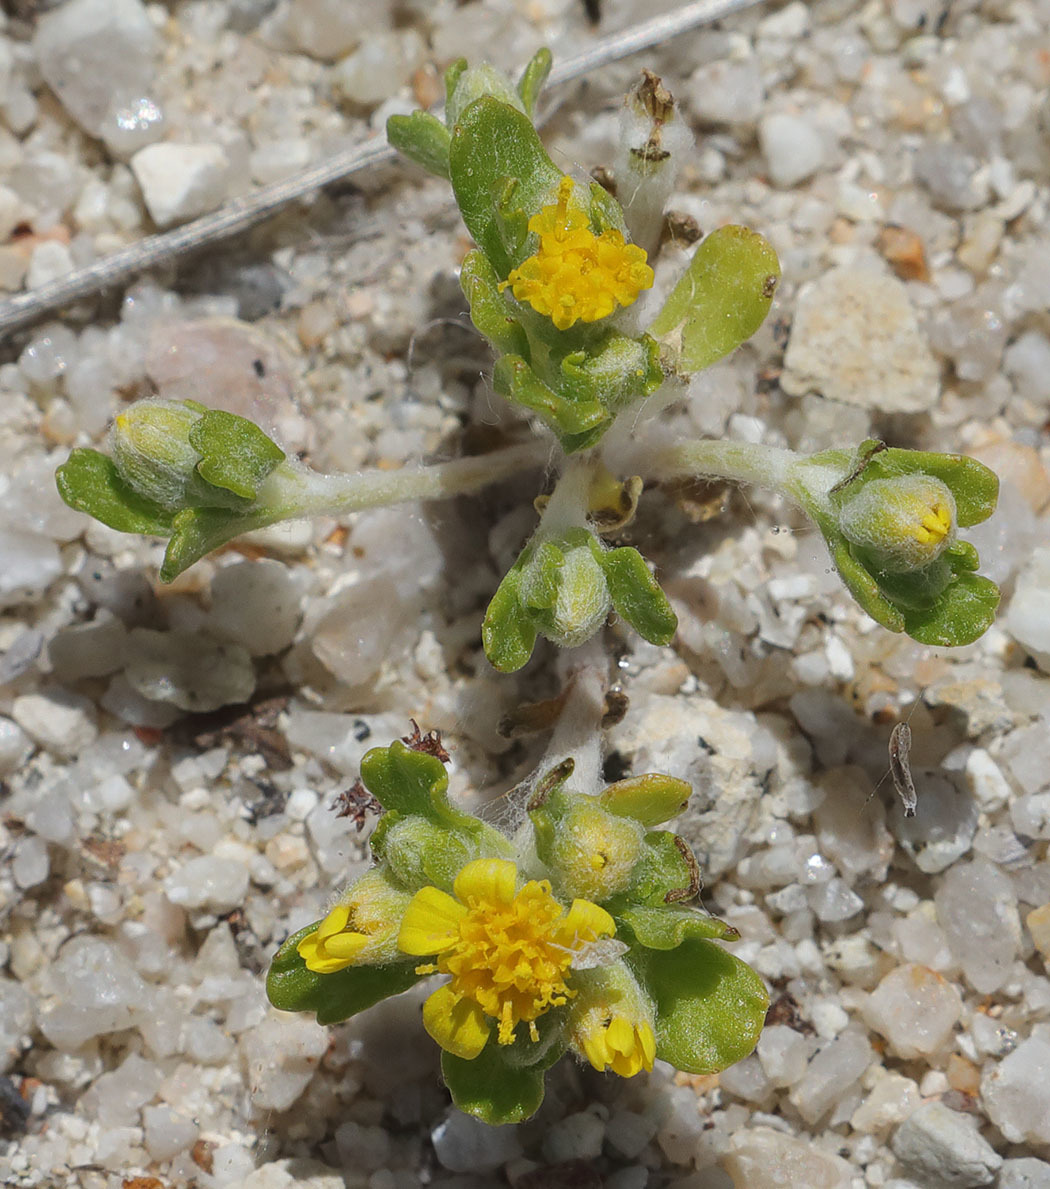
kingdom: Plantae
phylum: Tracheophyta
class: Magnoliopsida
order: Asterales
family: Asteraceae
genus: Eriophyllum
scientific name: Eriophyllum multicaule
